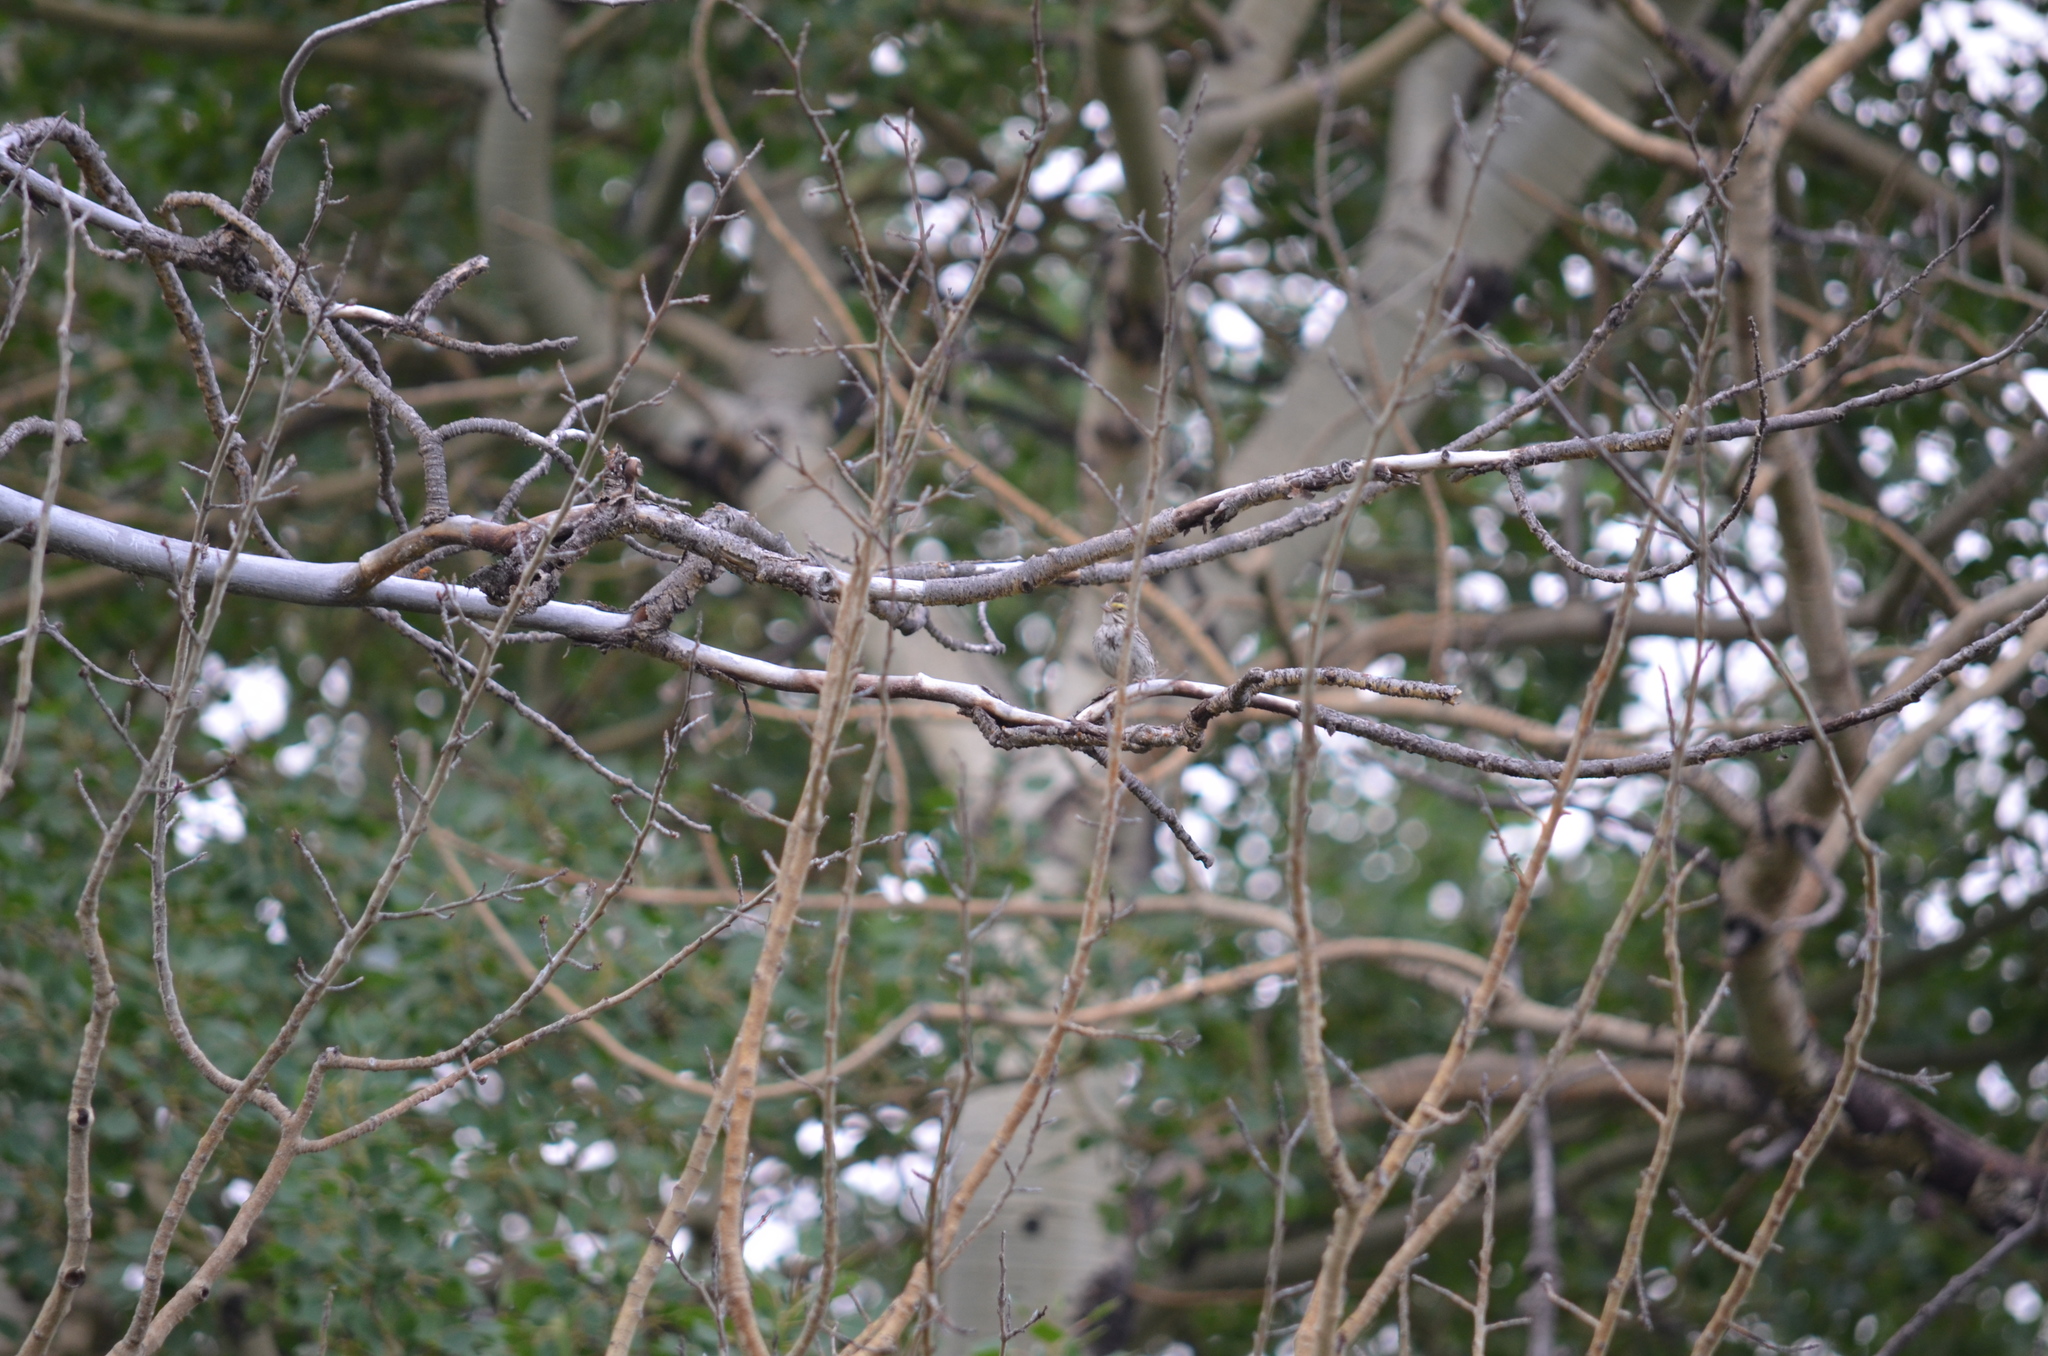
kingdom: Animalia
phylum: Chordata
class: Aves
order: Passeriformes
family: Passerellidae
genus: Passerculus
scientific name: Passerculus sandwichensis
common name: Savannah sparrow
